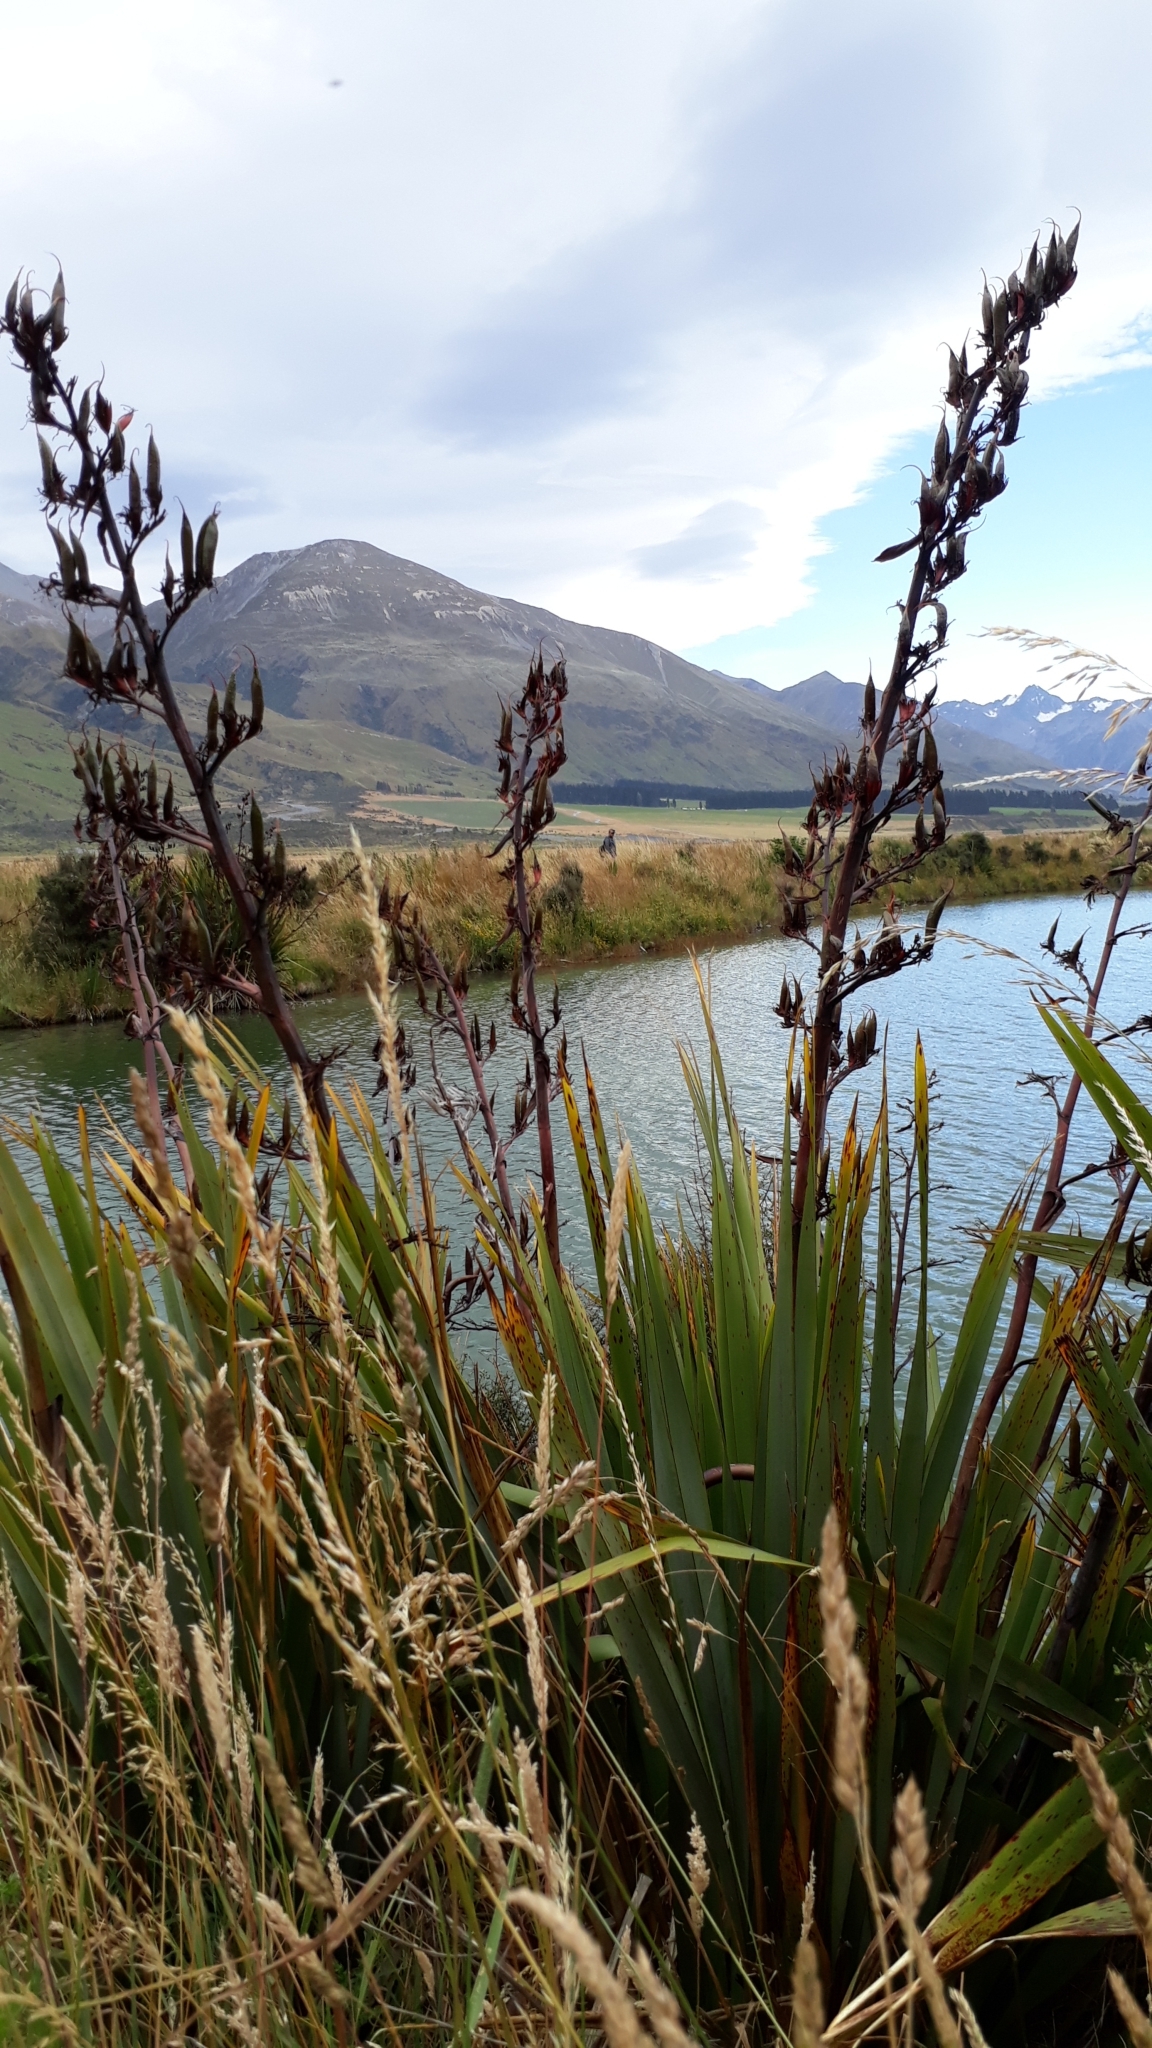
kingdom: Plantae
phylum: Tracheophyta
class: Liliopsida
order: Asparagales
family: Asphodelaceae
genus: Phormium
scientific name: Phormium tenax
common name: New zealand flax
